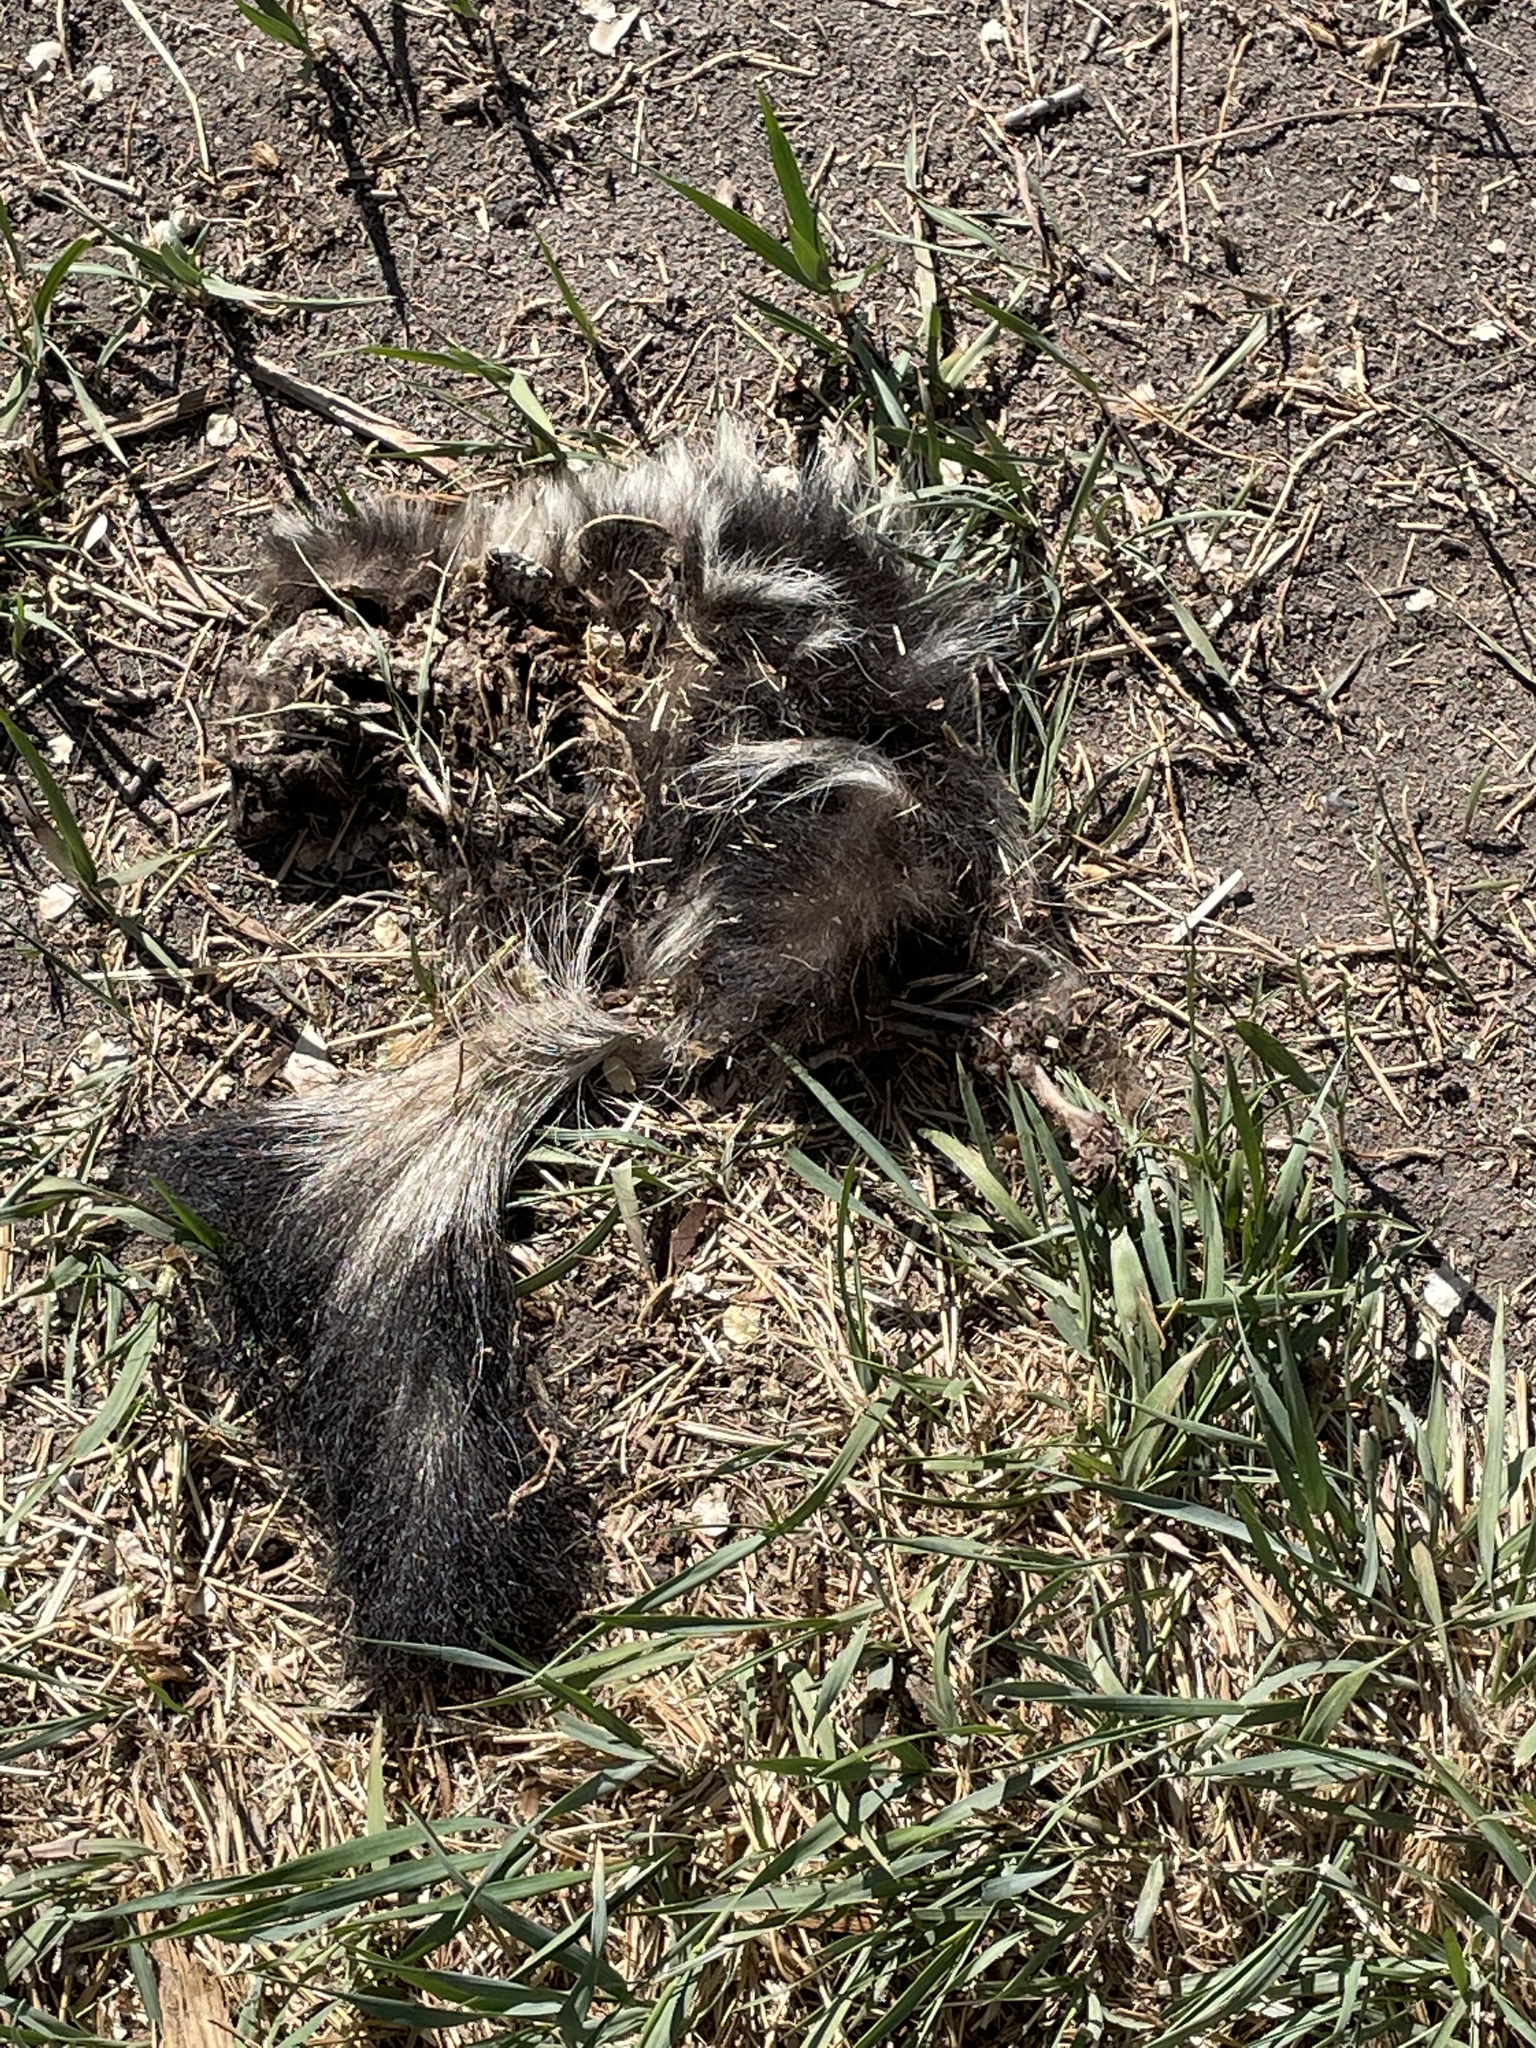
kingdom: Animalia
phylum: Chordata
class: Mammalia
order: Carnivora
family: Mephitidae
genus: Mephitis
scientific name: Mephitis mephitis
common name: Striped skunk
